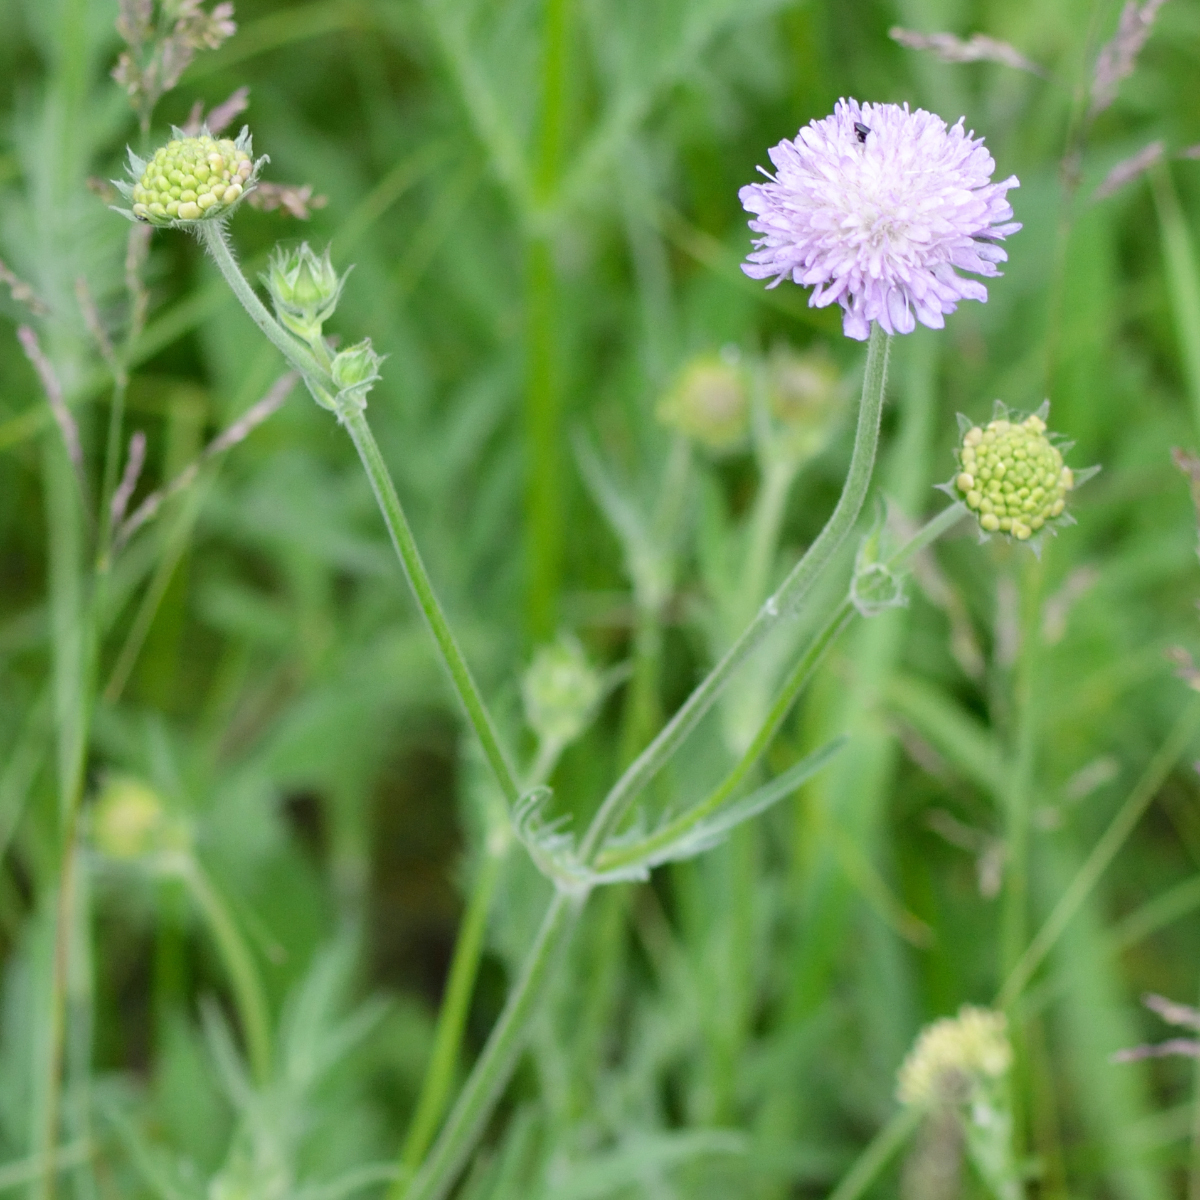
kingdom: Plantae
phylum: Tracheophyta
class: Magnoliopsida
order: Dipsacales
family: Caprifoliaceae
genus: Knautia
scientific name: Knautia arvensis
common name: Field scabiosa
